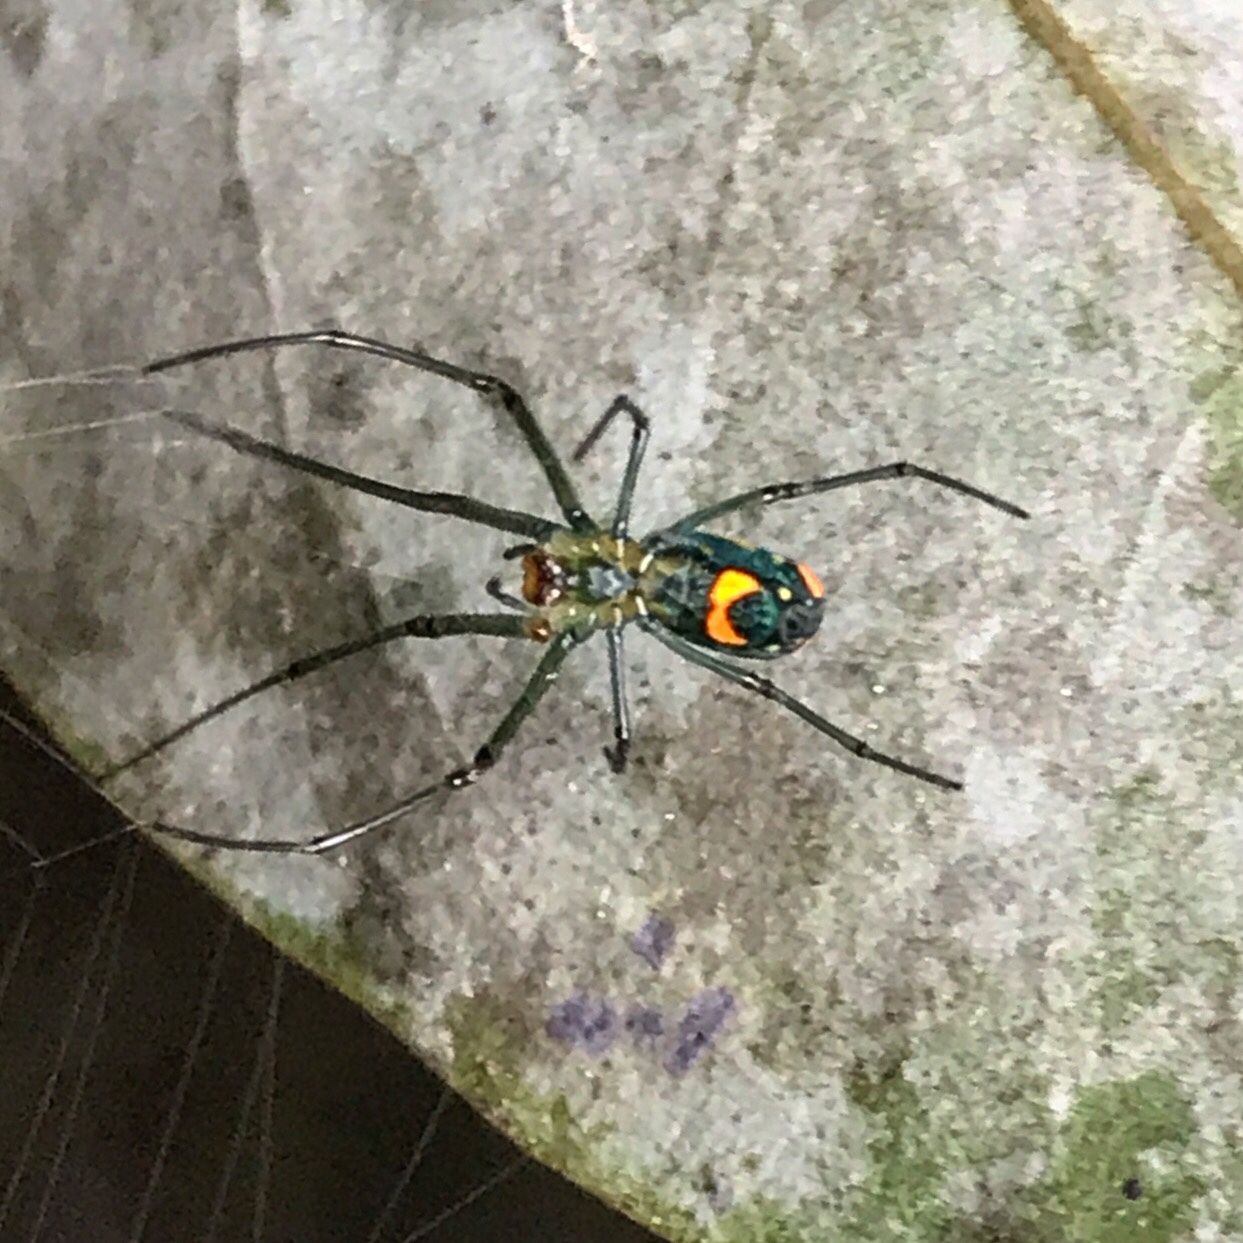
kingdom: Animalia
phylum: Arthropoda
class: Arachnida
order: Araneae
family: Tetragnathidae
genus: Leucauge
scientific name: Leucauge argyrobapta
